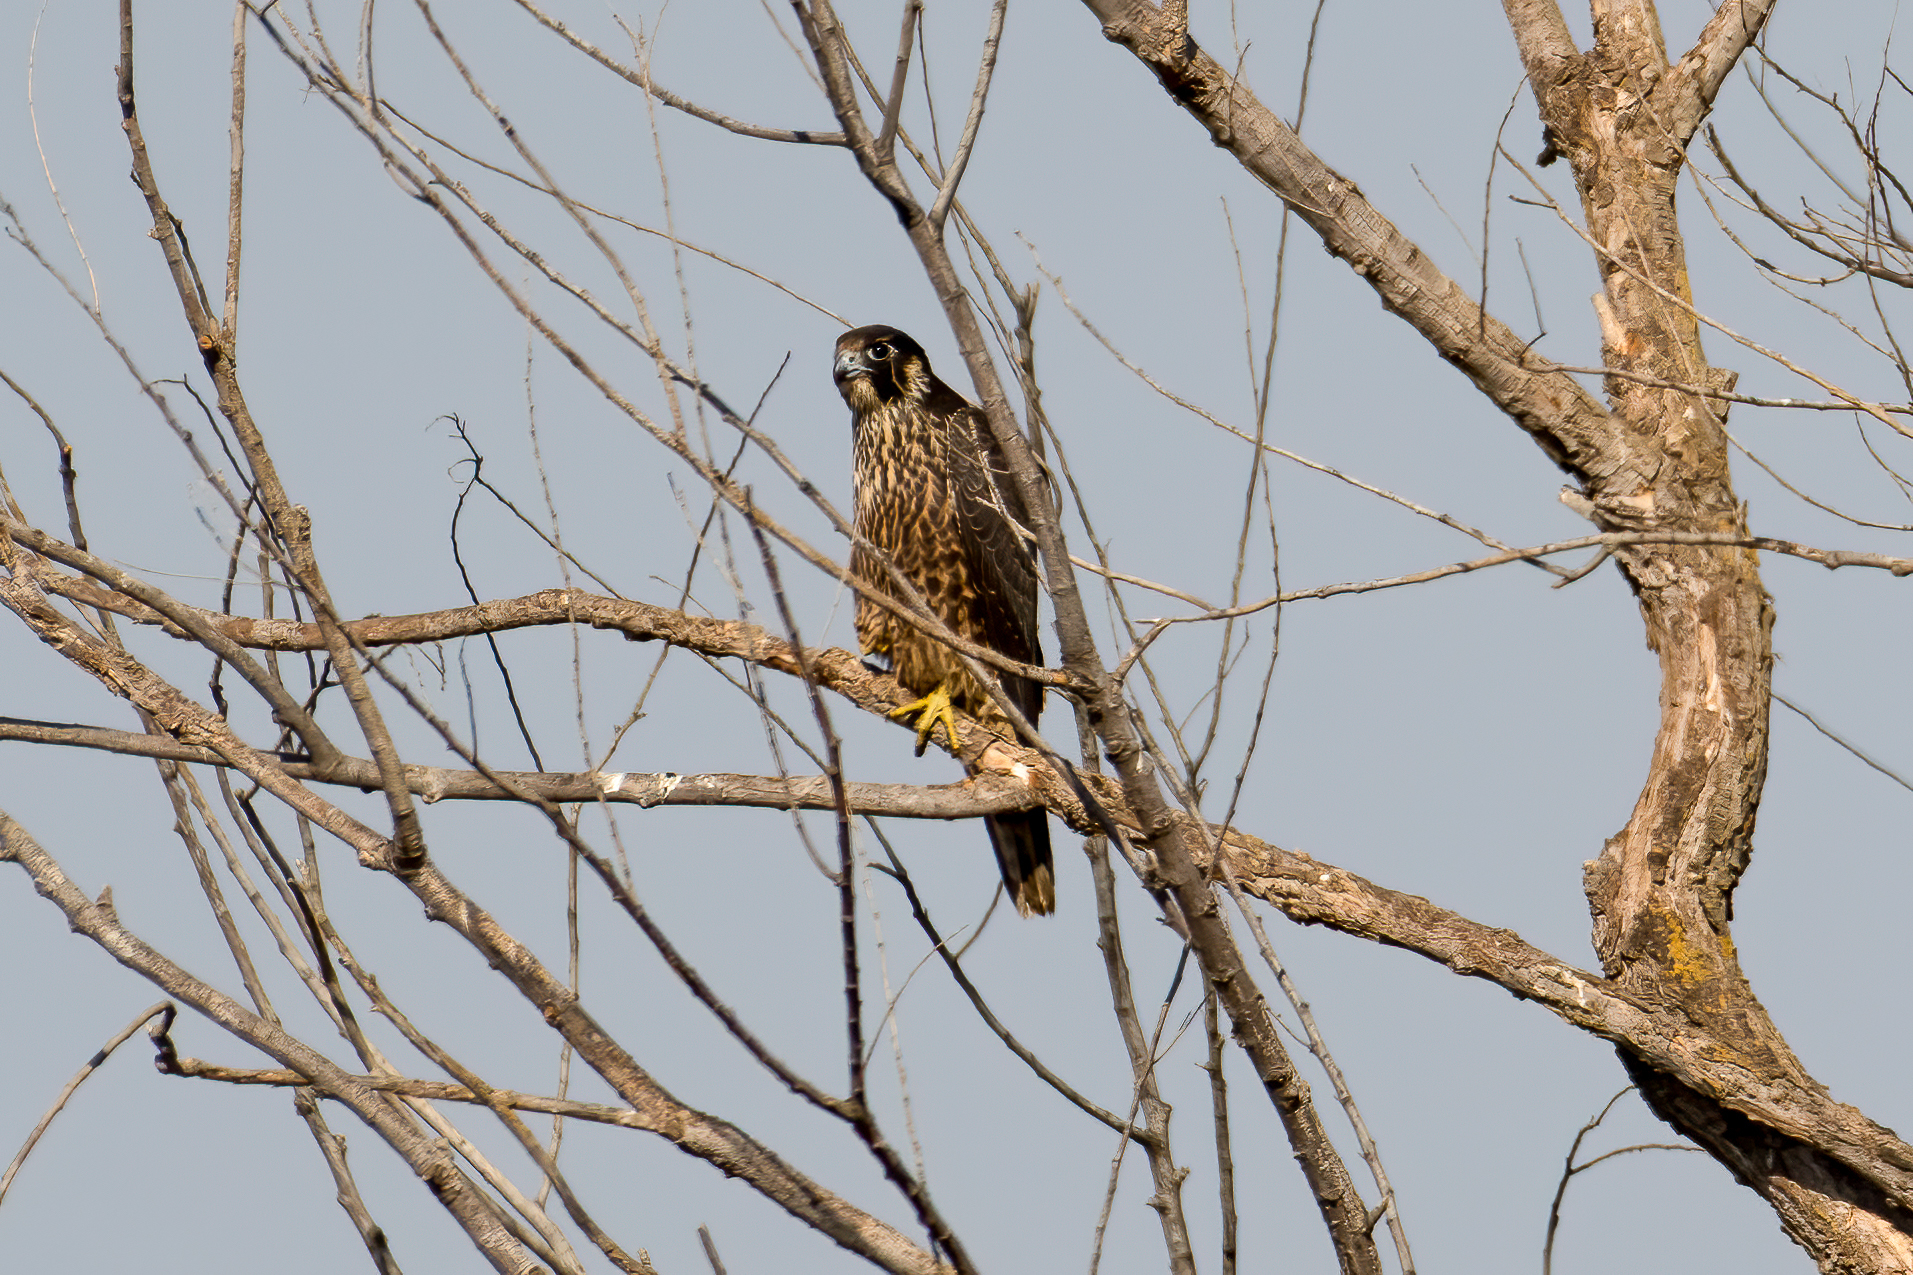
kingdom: Animalia
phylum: Chordata
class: Aves
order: Falconiformes
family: Falconidae
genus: Falco
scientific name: Falco peregrinus
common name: Peregrine falcon
